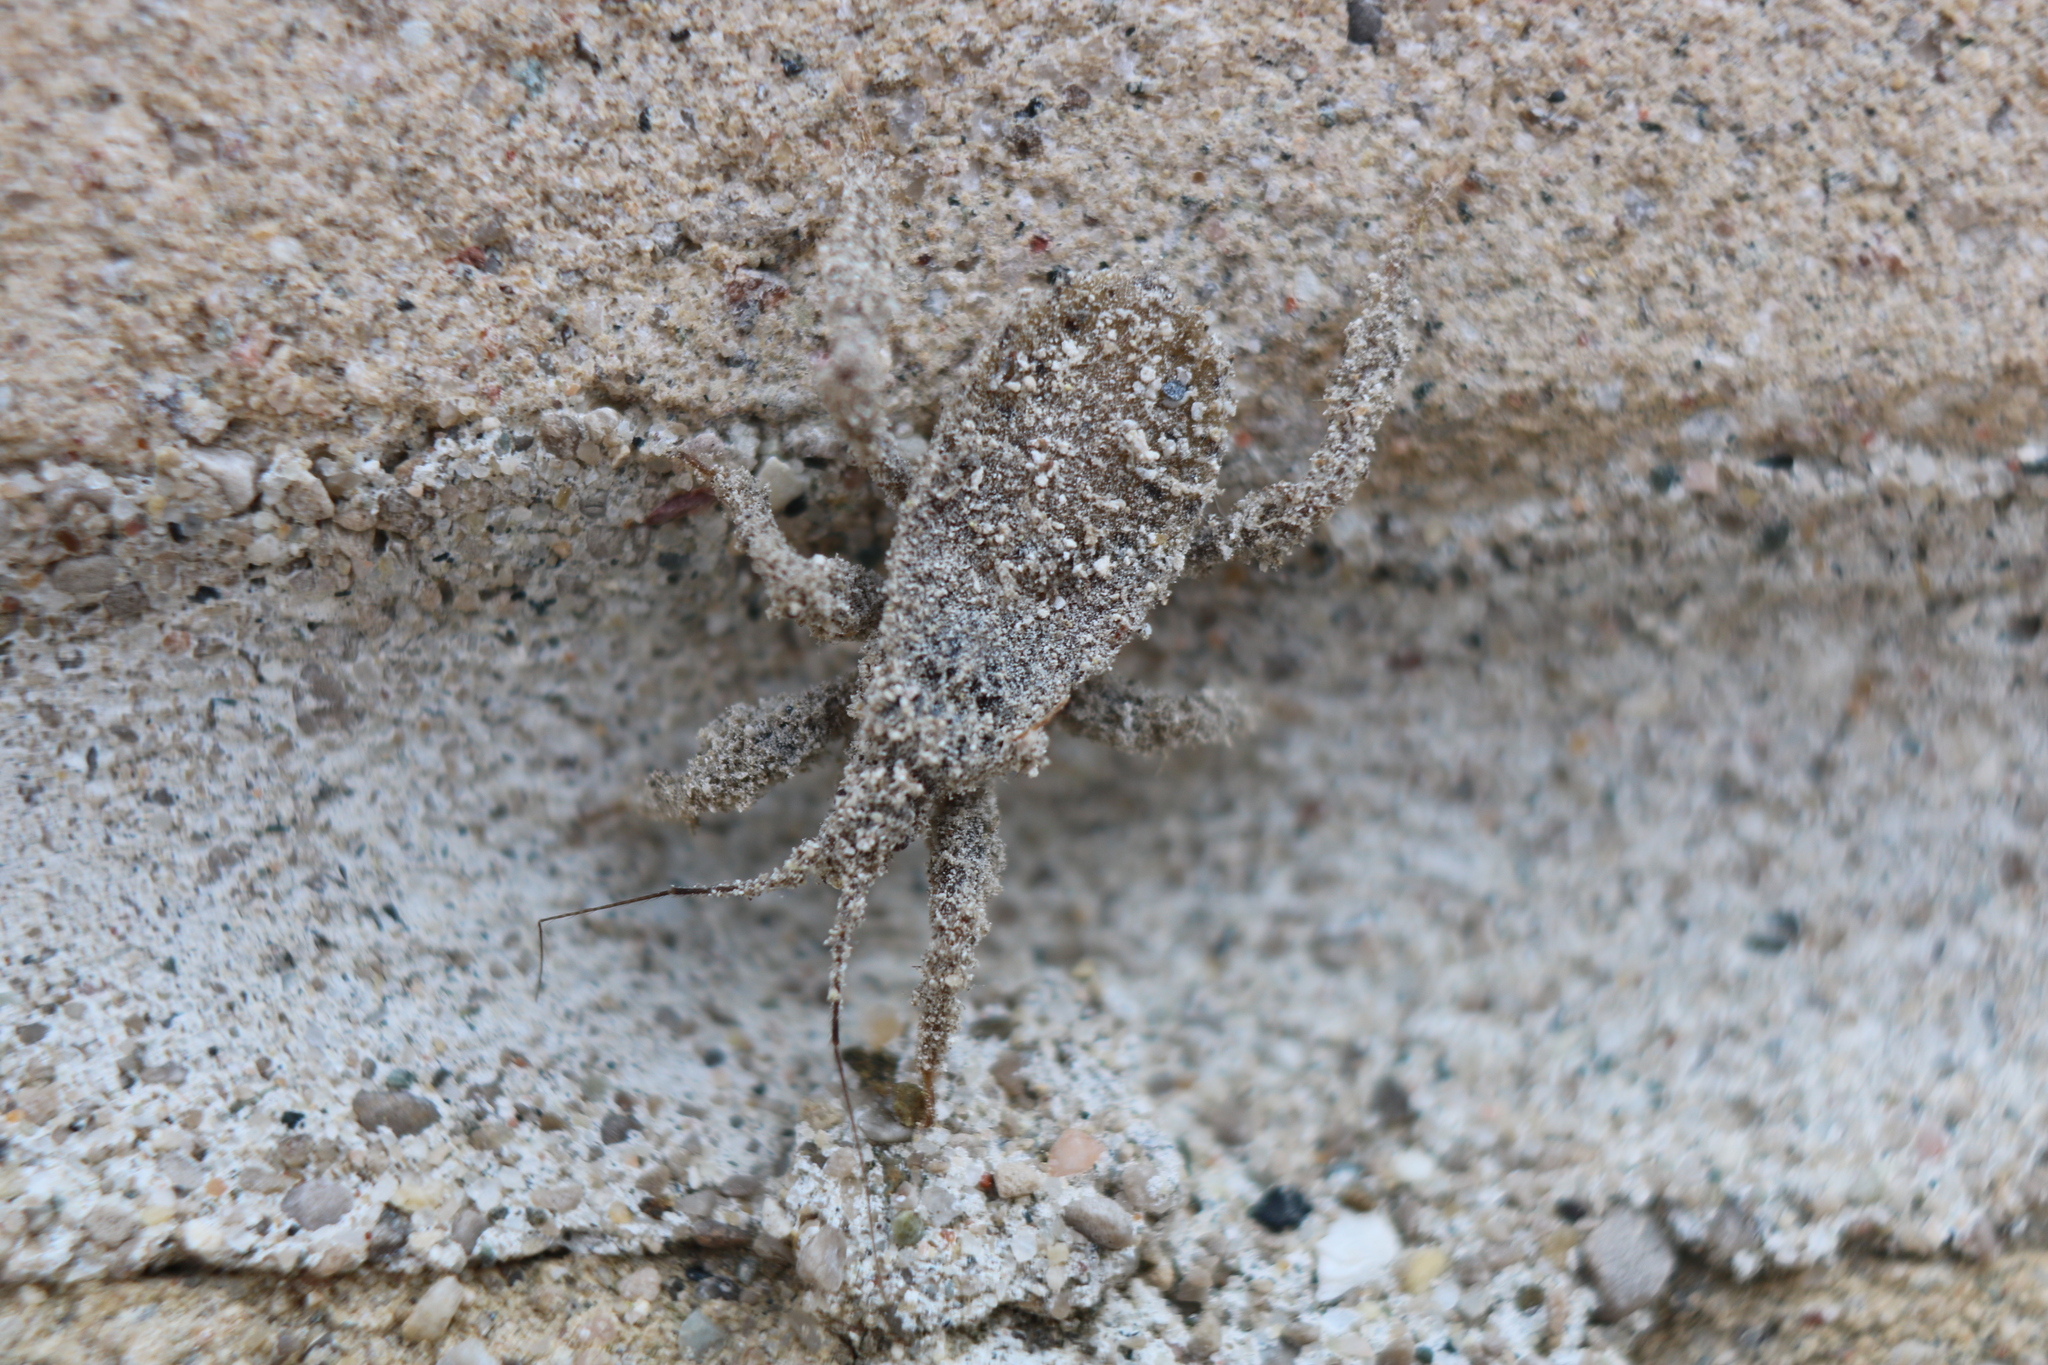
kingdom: Animalia
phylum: Arthropoda
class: Insecta
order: Hemiptera
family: Reduviidae
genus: Reduvius
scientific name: Reduvius personatus
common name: Masked hunter
